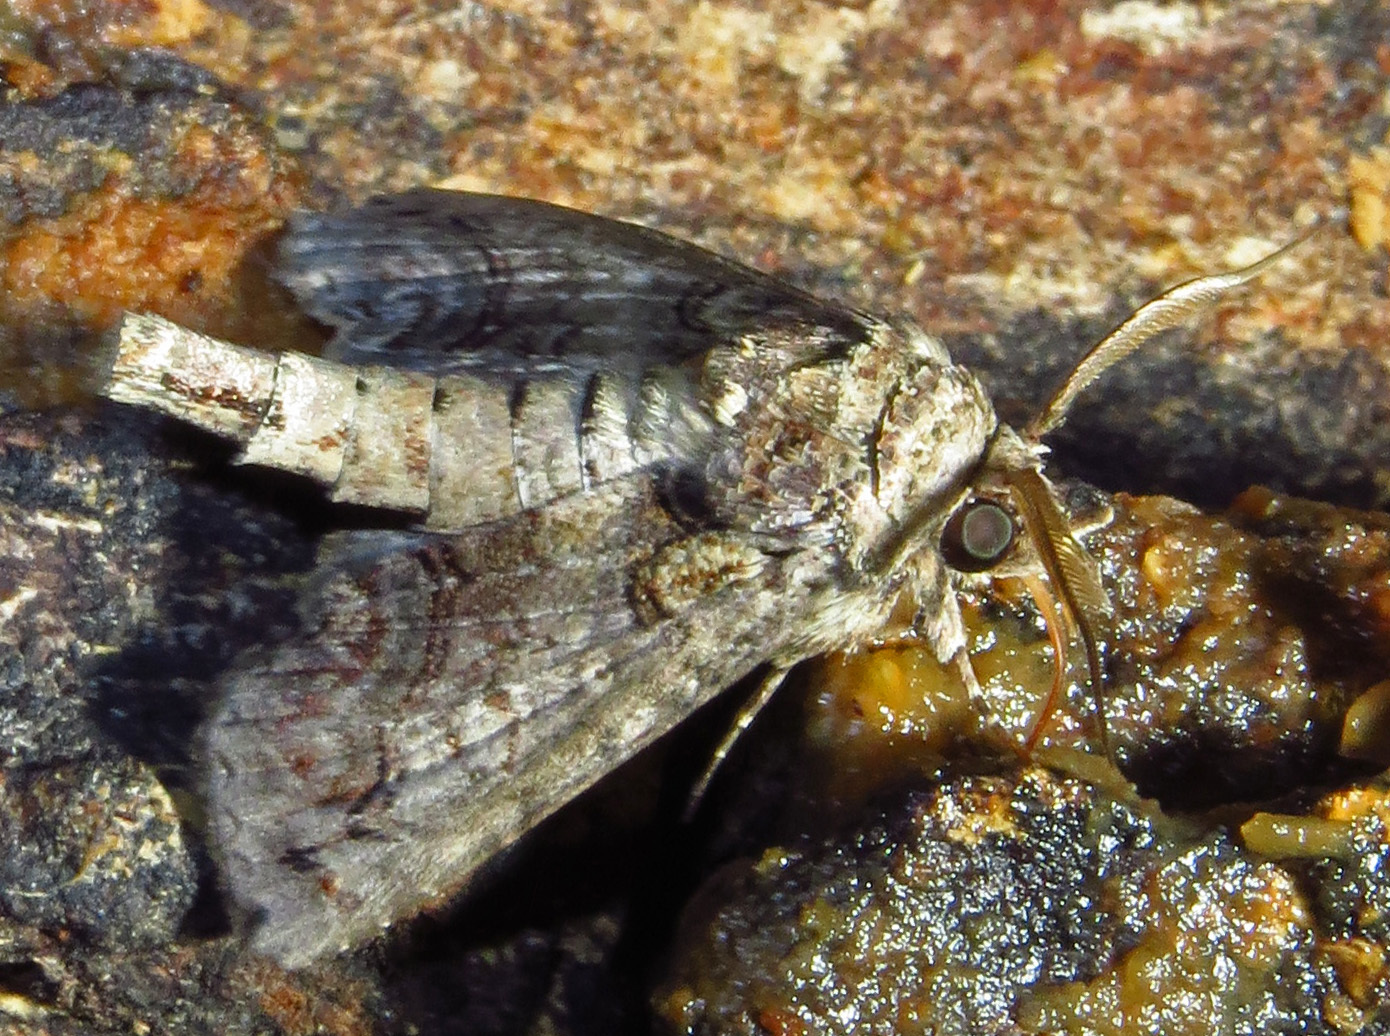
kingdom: Animalia
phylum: Arthropoda
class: Insecta
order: Lepidoptera
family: Euteliidae
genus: Paectes
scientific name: Paectes abrostoloides
